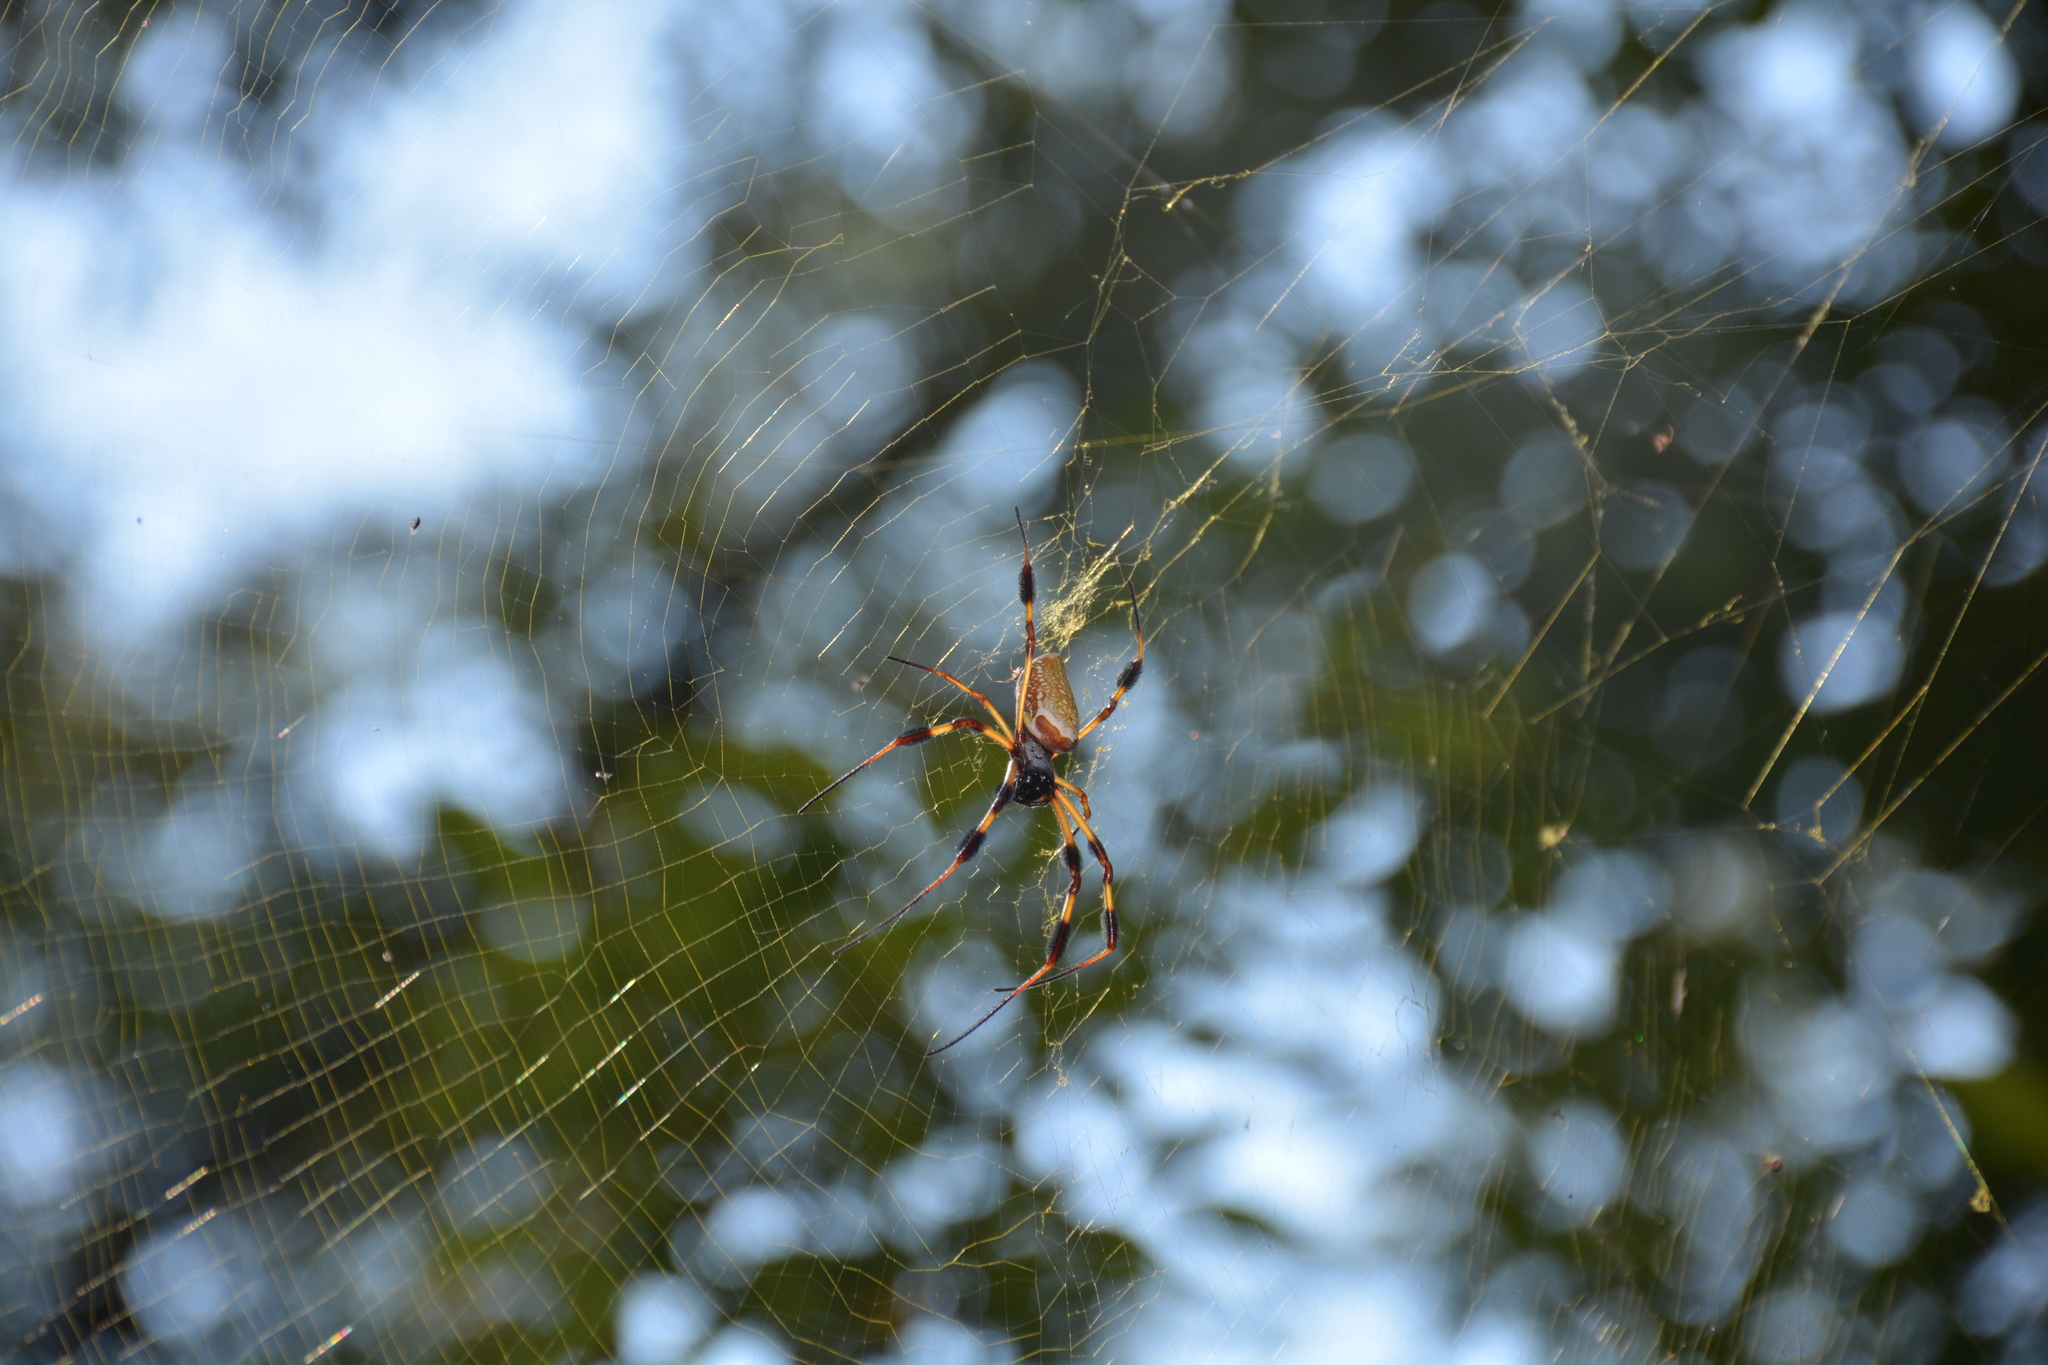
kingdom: Animalia
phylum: Arthropoda
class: Arachnida
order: Araneae
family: Araneidae
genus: Trichonephila
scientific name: Trichonephila clavipes
